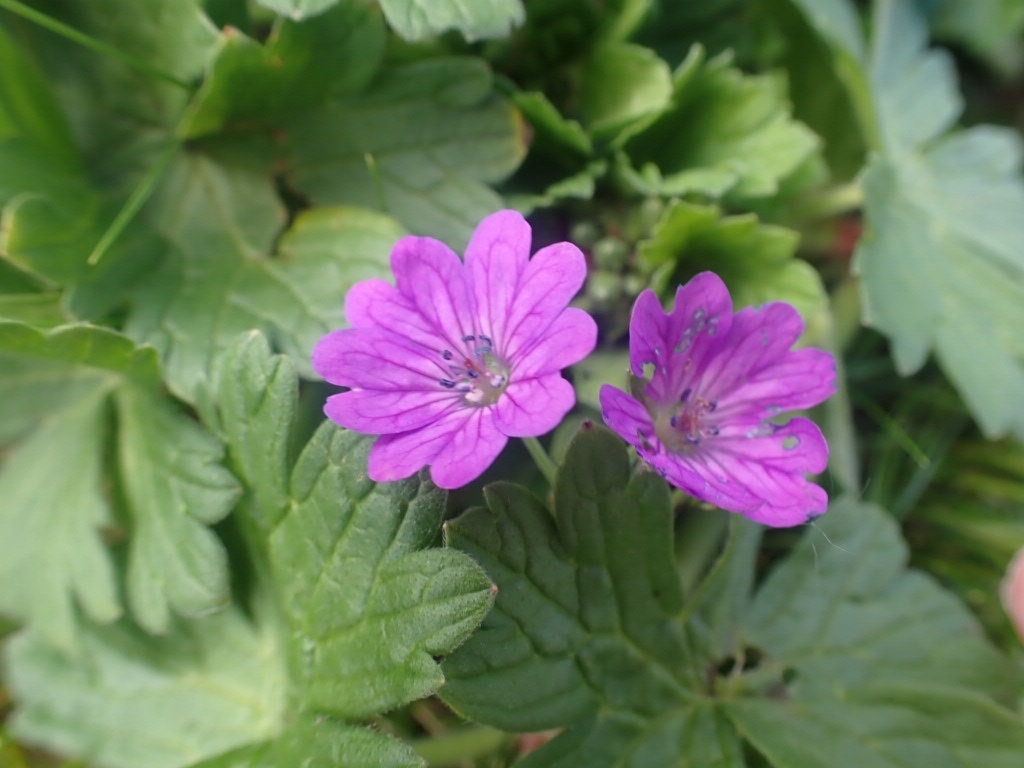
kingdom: Plantae
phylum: Tracheophyta
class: Magnoliopsida
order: Geraniales
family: Geraniaceae
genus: Geranium
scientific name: Geranium pyrenaicum
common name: Hedgerow crane's-bill
